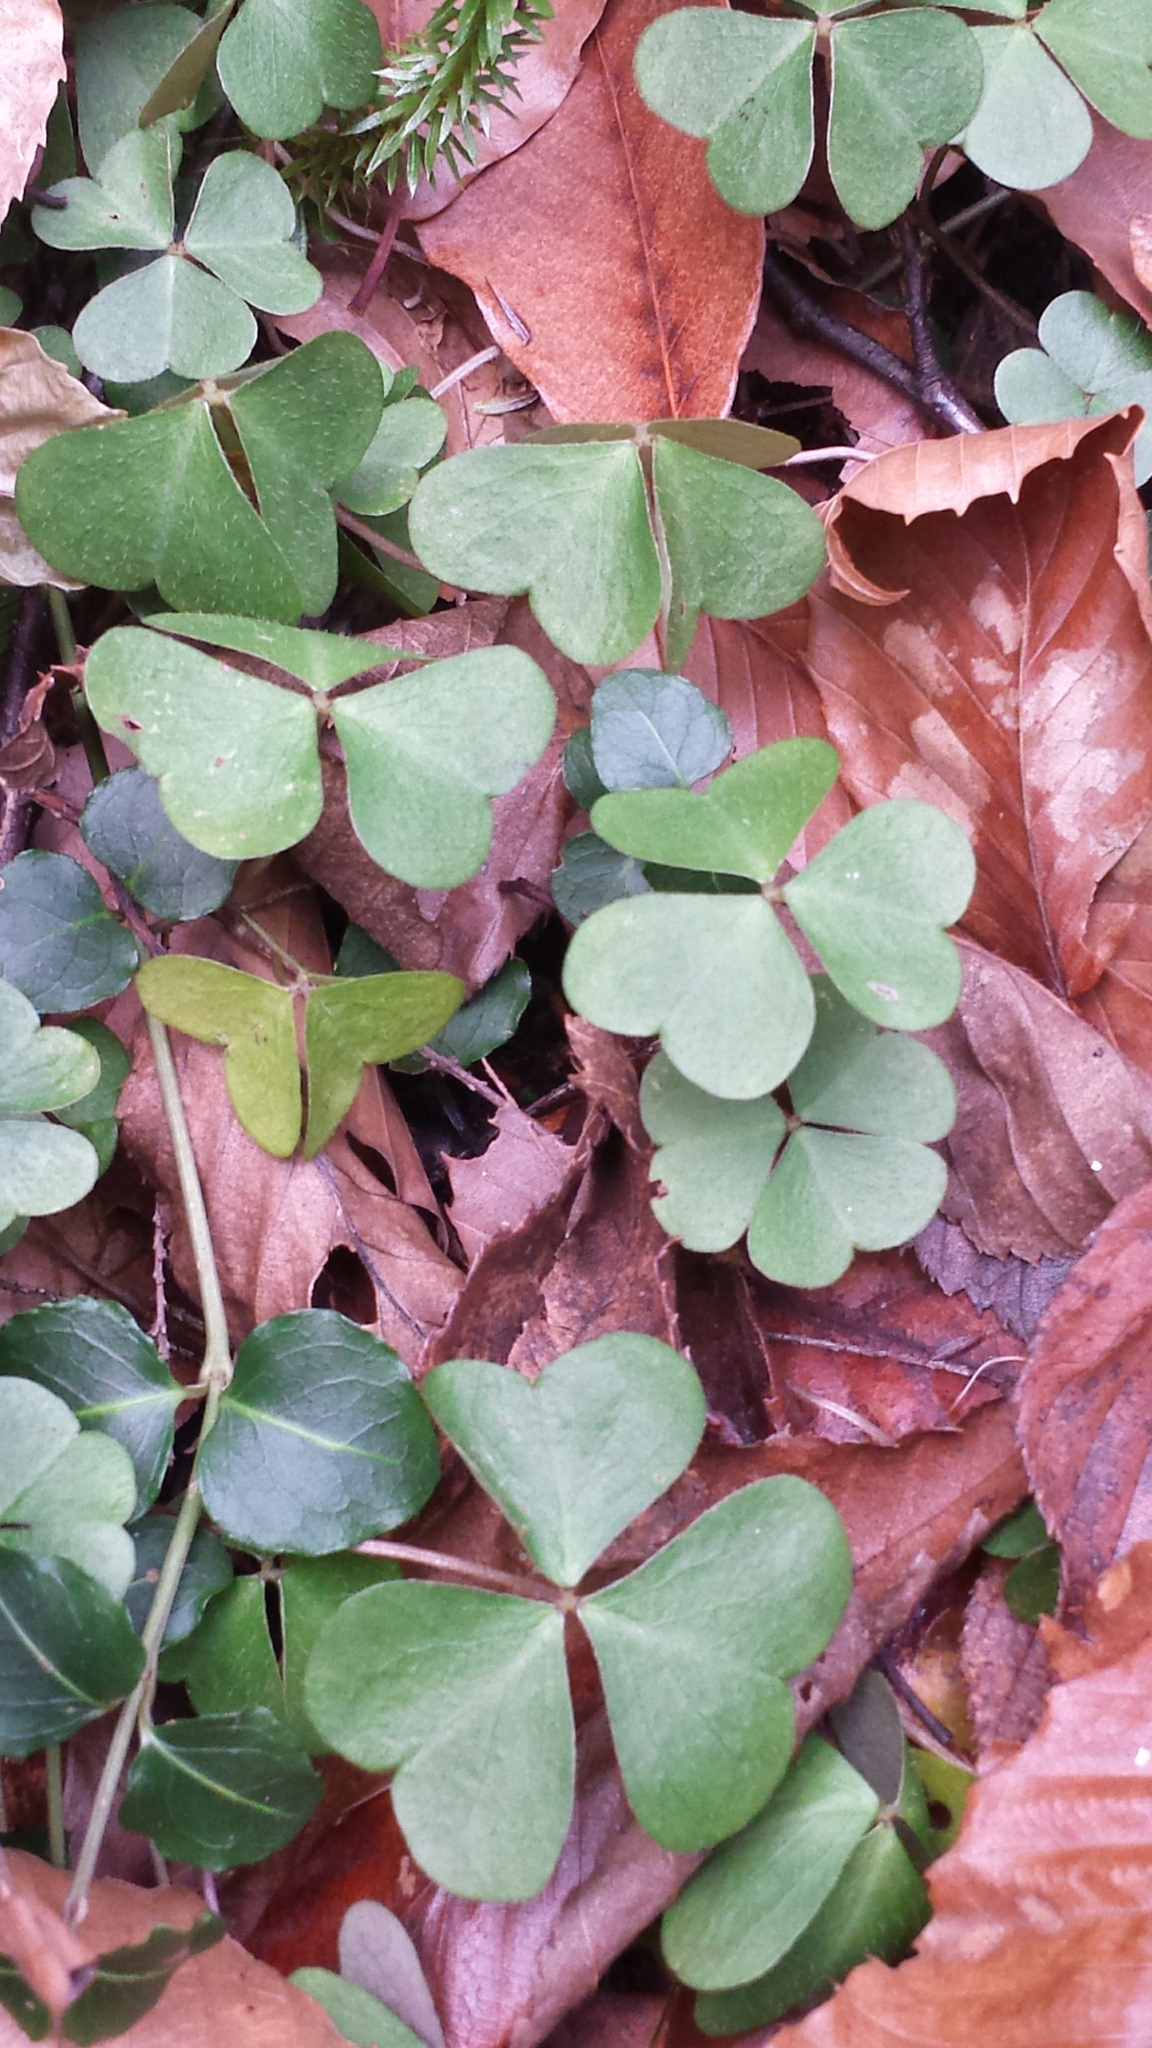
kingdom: Plantae
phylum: Tracheophyta
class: Magnoliopsida
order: Oxalidales
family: Oxalidaceae
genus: Oxalis
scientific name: Oxalis montana
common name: American wood-sorrel
